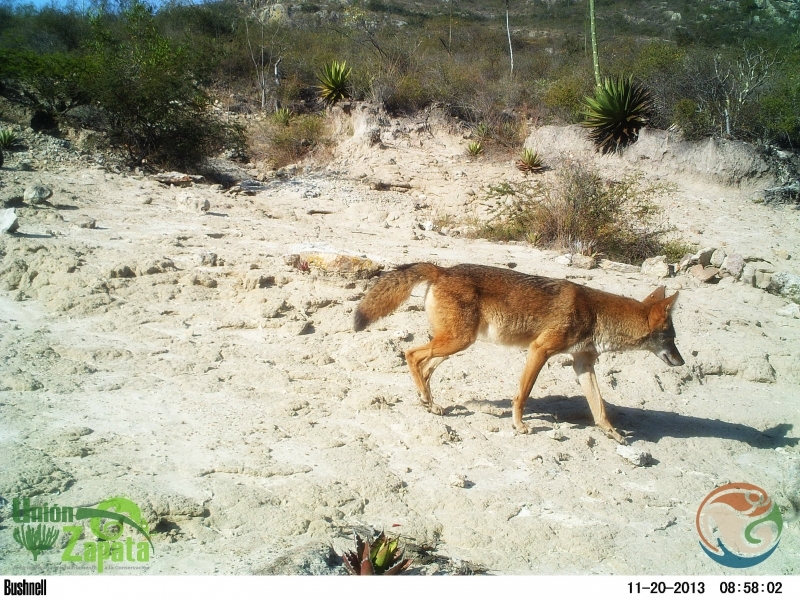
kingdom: Animalia
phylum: Chordata
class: Mammalia
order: Carnivora
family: Canidae
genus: Canis
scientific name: Canis latrans
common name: Coyote
